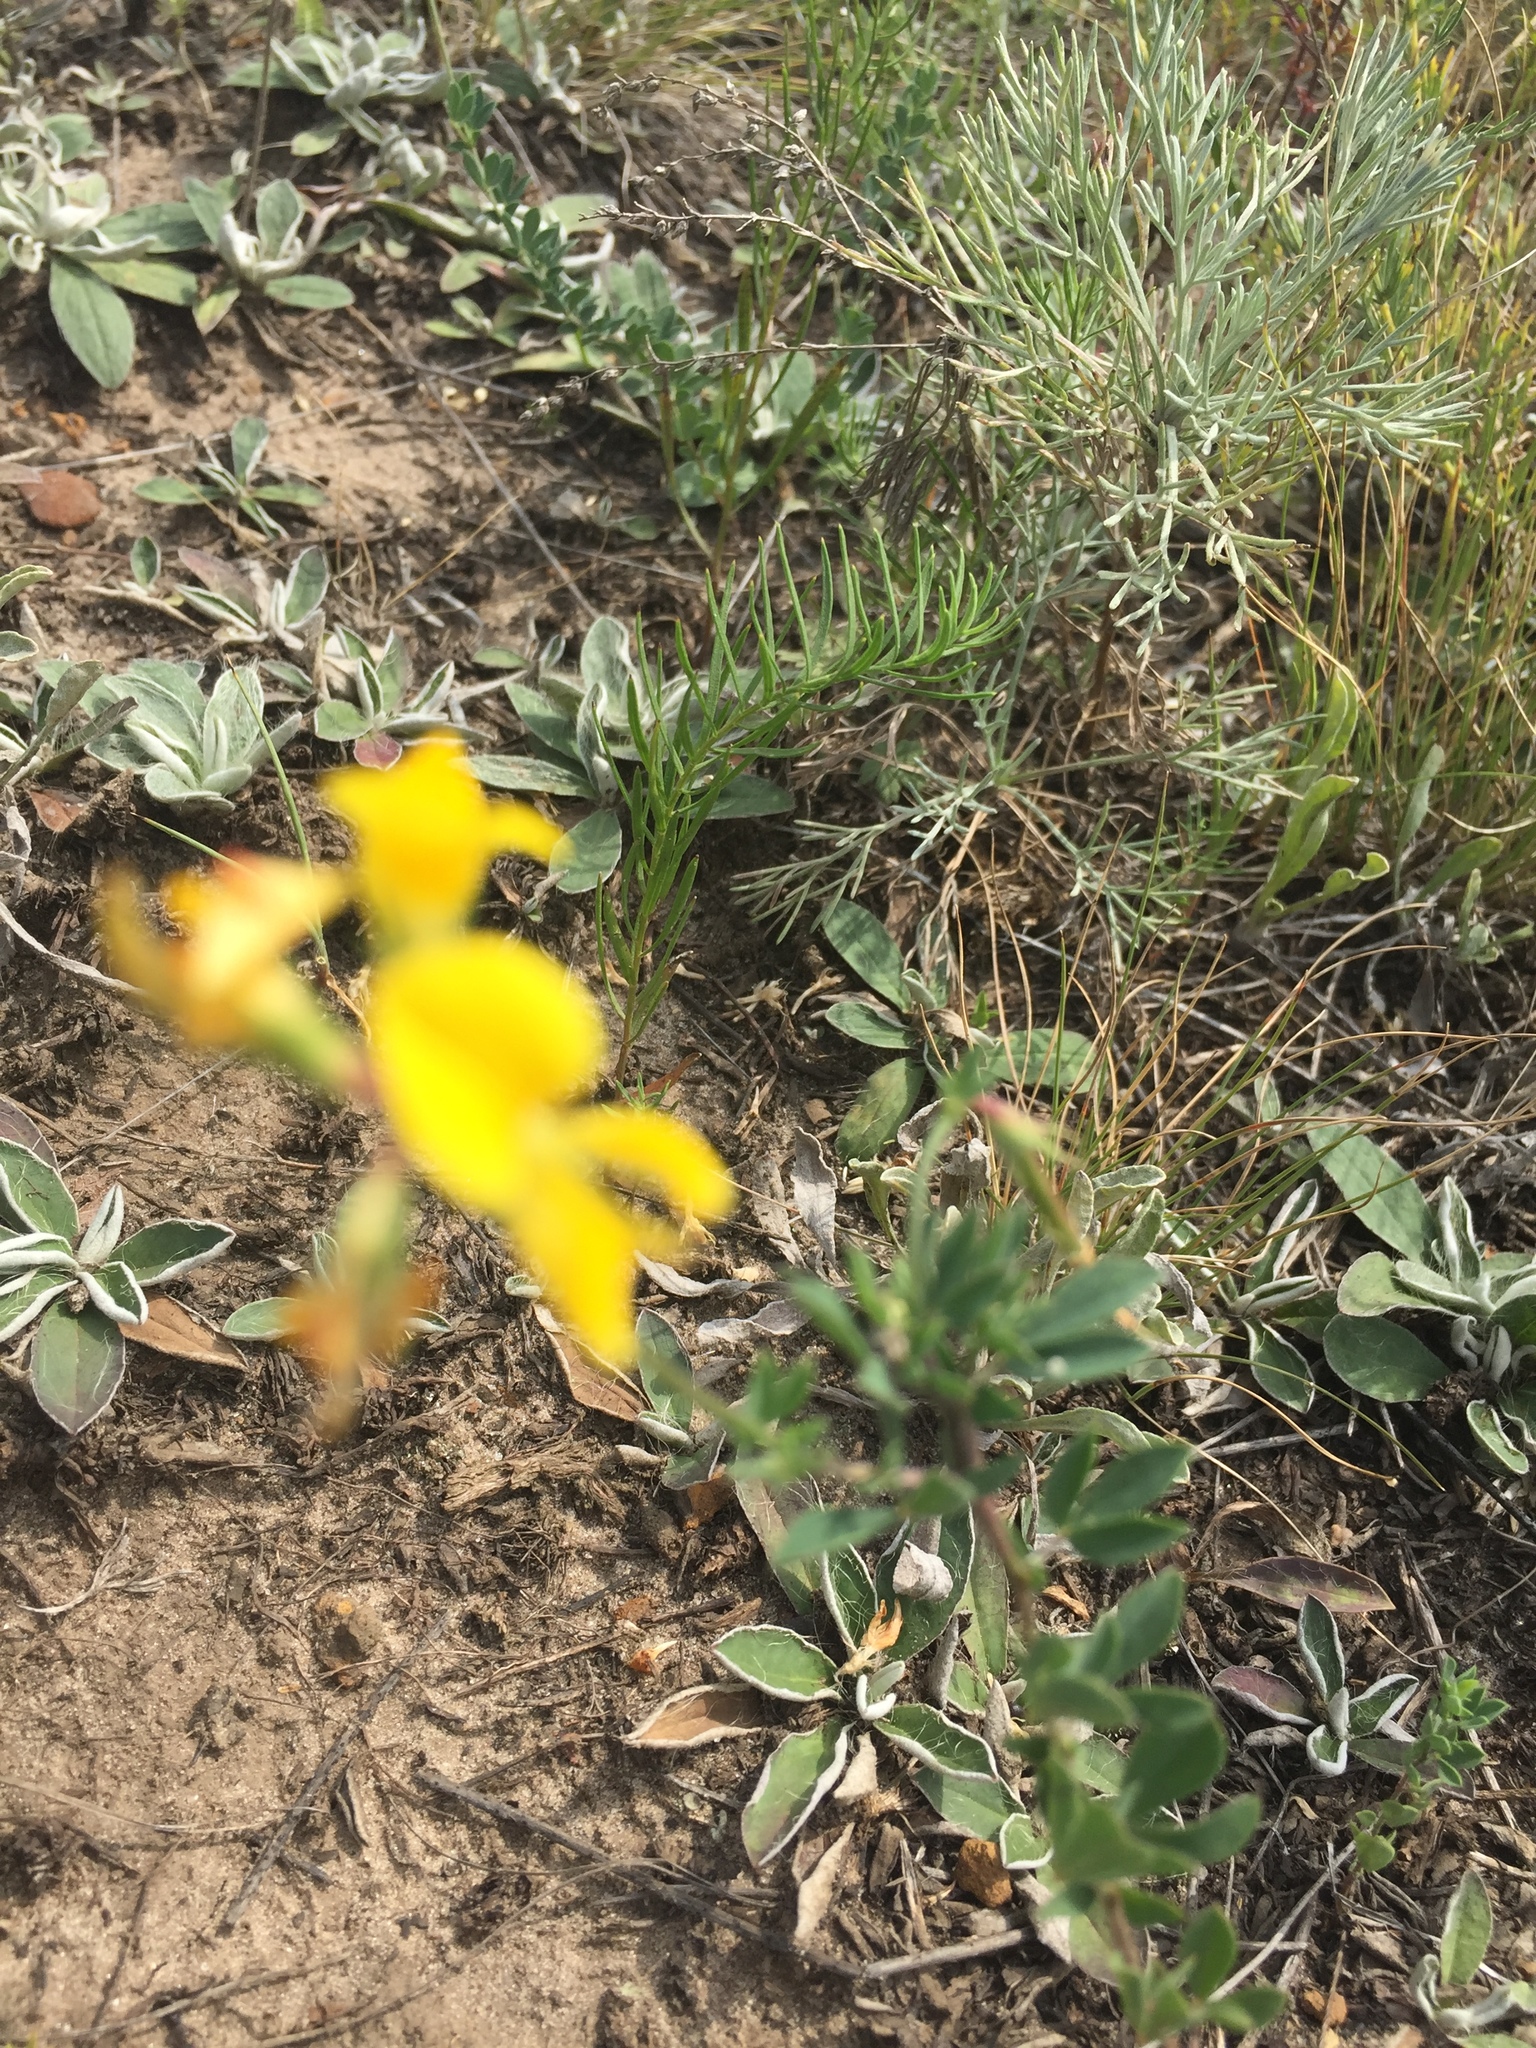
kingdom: Plantae
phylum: Tracheophyta
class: Magnoliopsida
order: Fabales
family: Fabaceae
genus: Lotus
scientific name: Lotus corniculatus
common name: Common bird's-foot-trefoil
